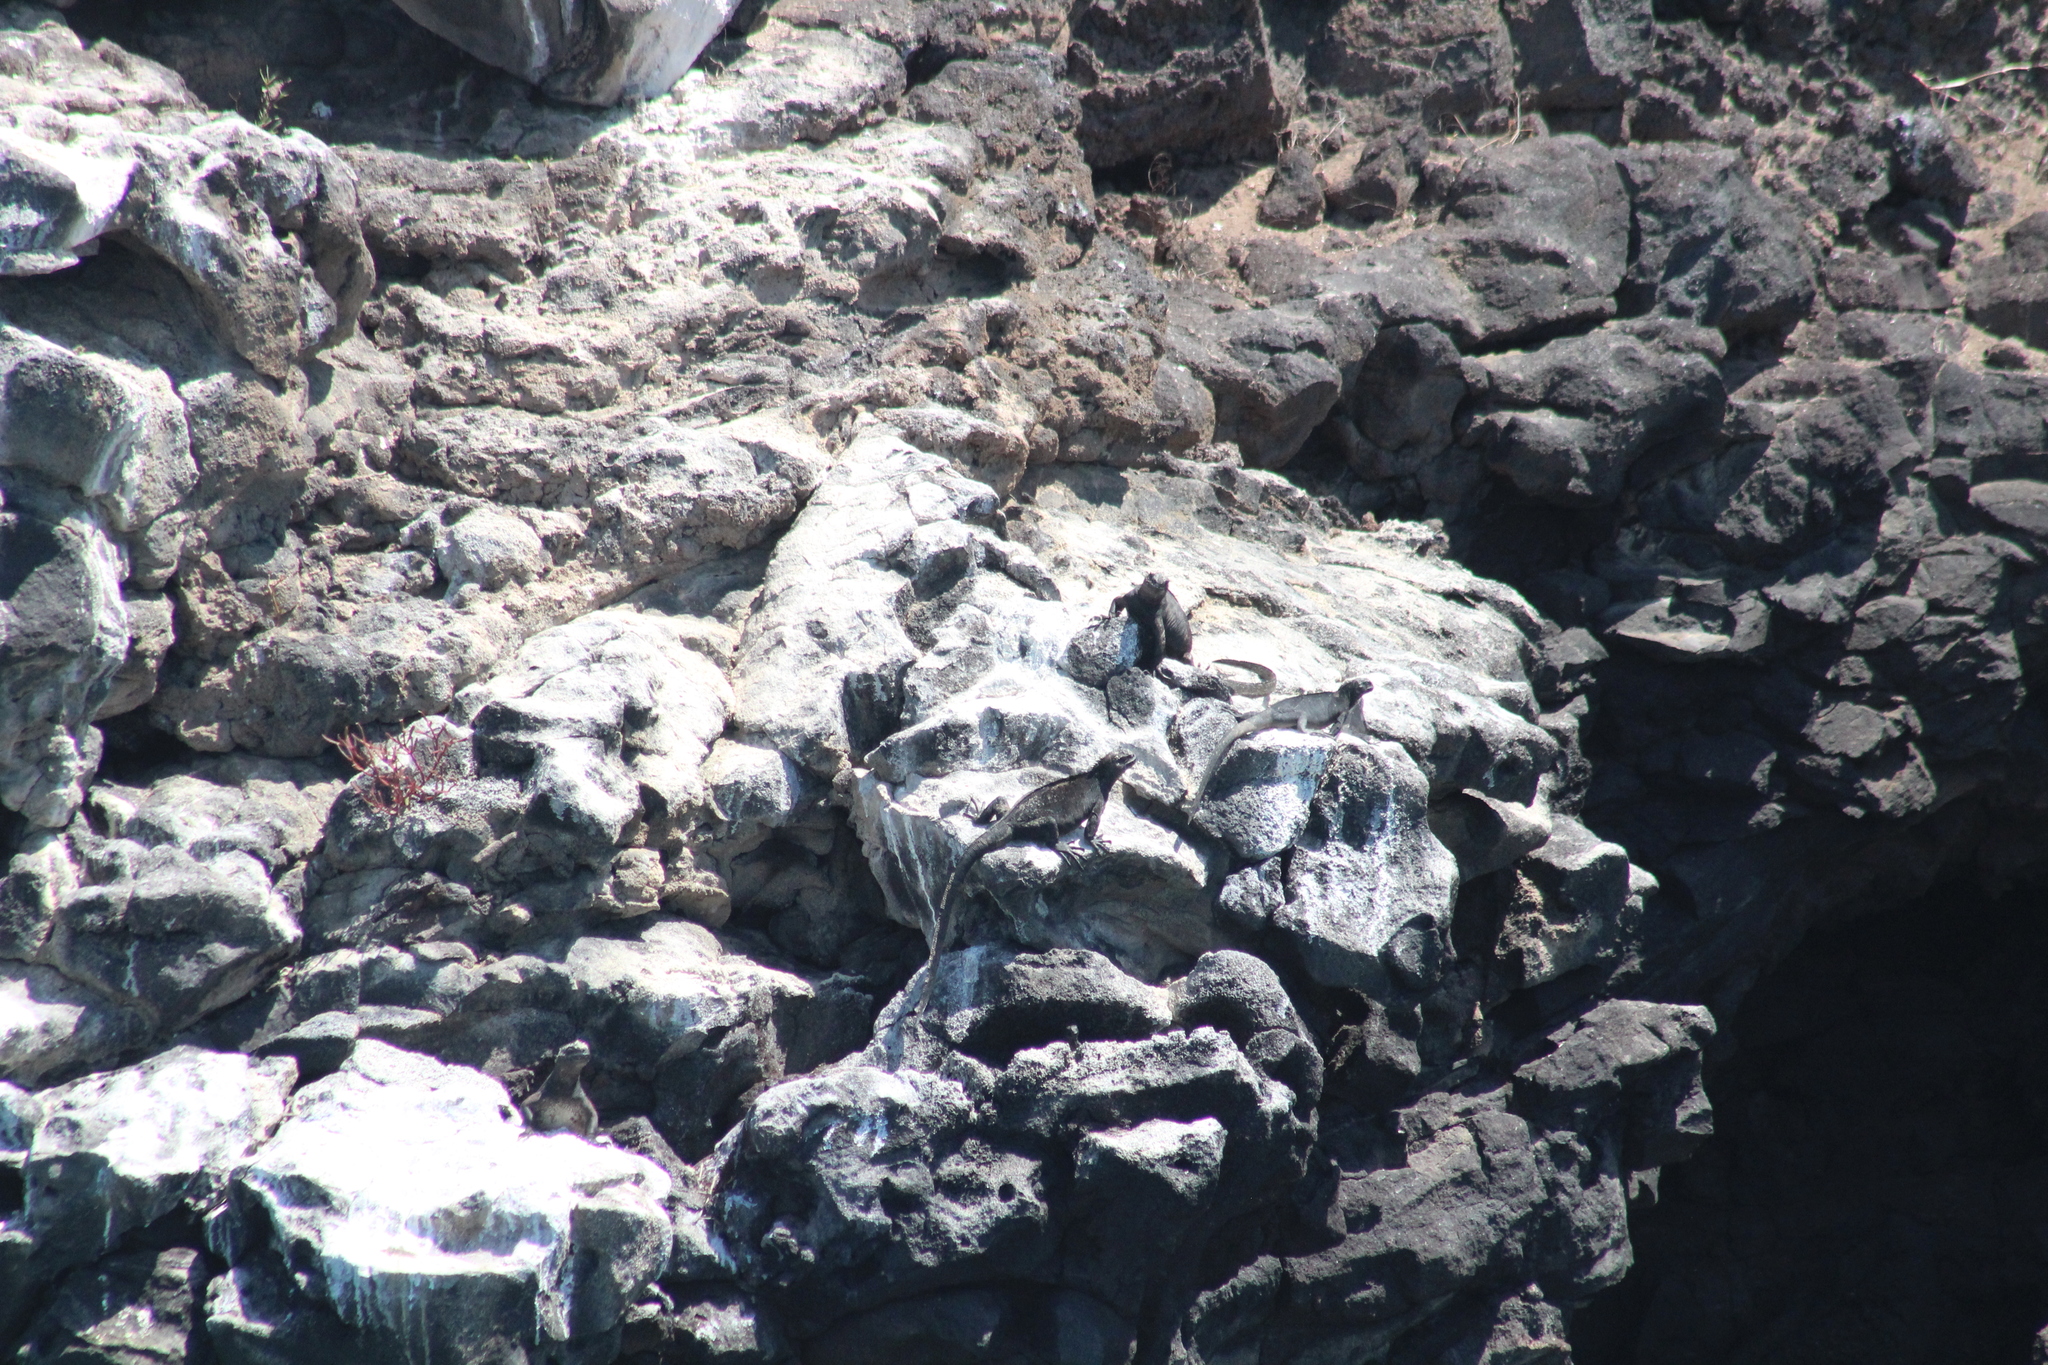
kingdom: Animalia
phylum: Chordata
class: Squamata
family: Iguanidae
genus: Amblyrhynchus
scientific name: Amblyrhynchus cristatus
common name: Marine iguana
